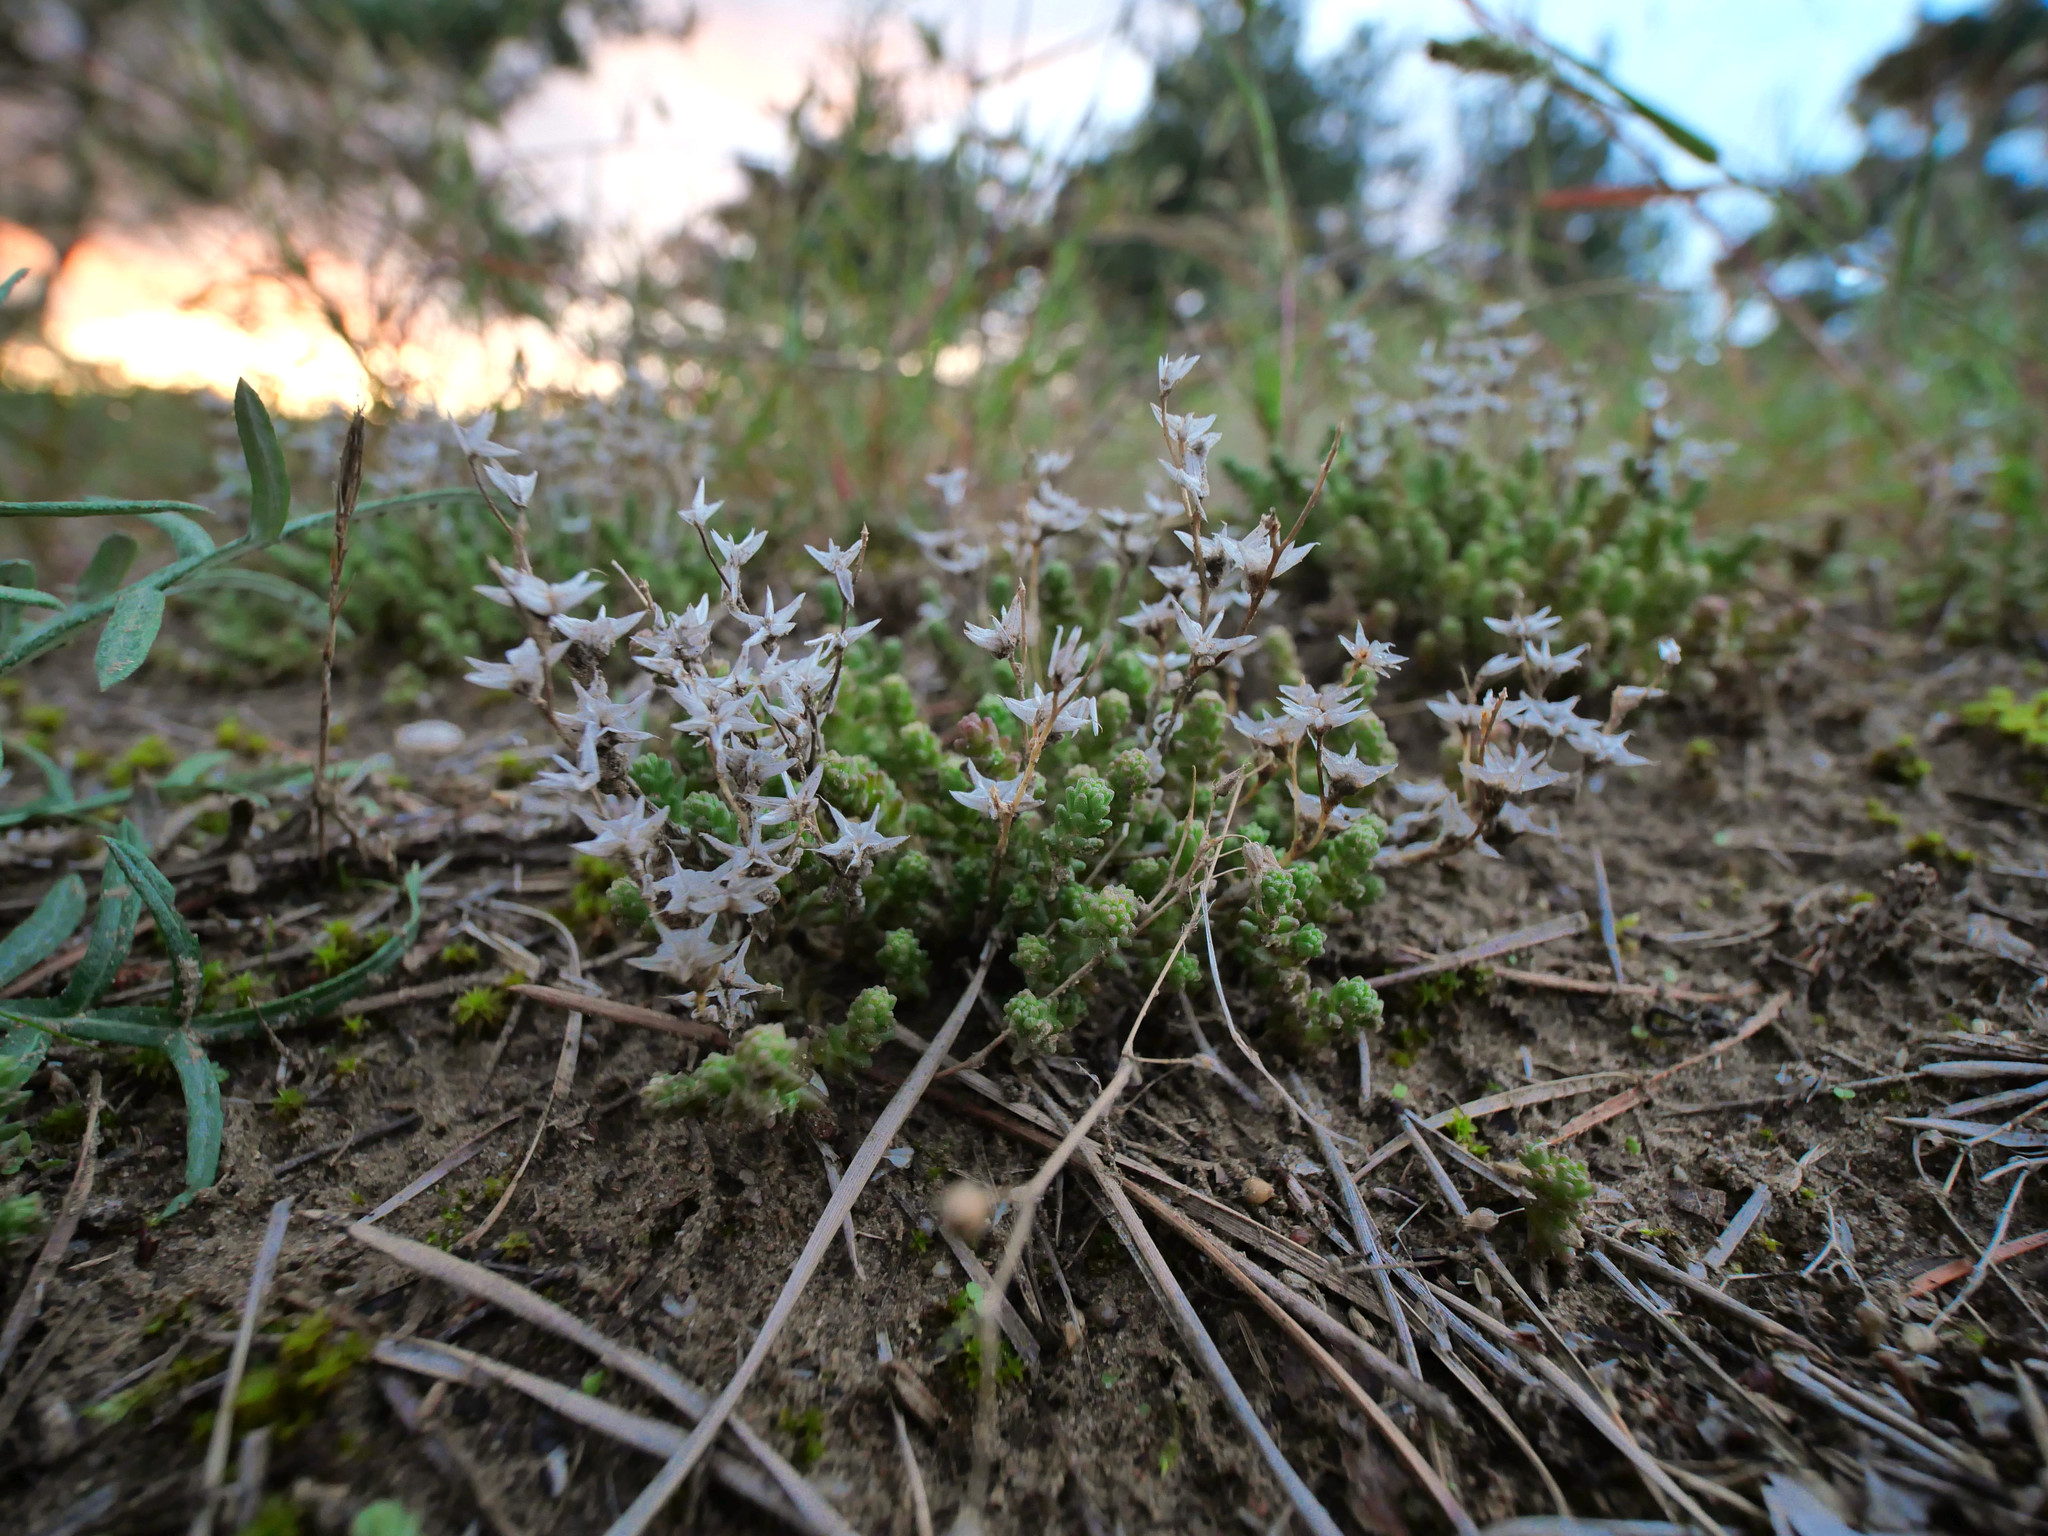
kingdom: Plantae
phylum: Tracheophyta
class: Magnoliopsida
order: Saxifragales
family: Crassulaceae
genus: Sedum
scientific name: Sedum acre
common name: Biting stonecrop
